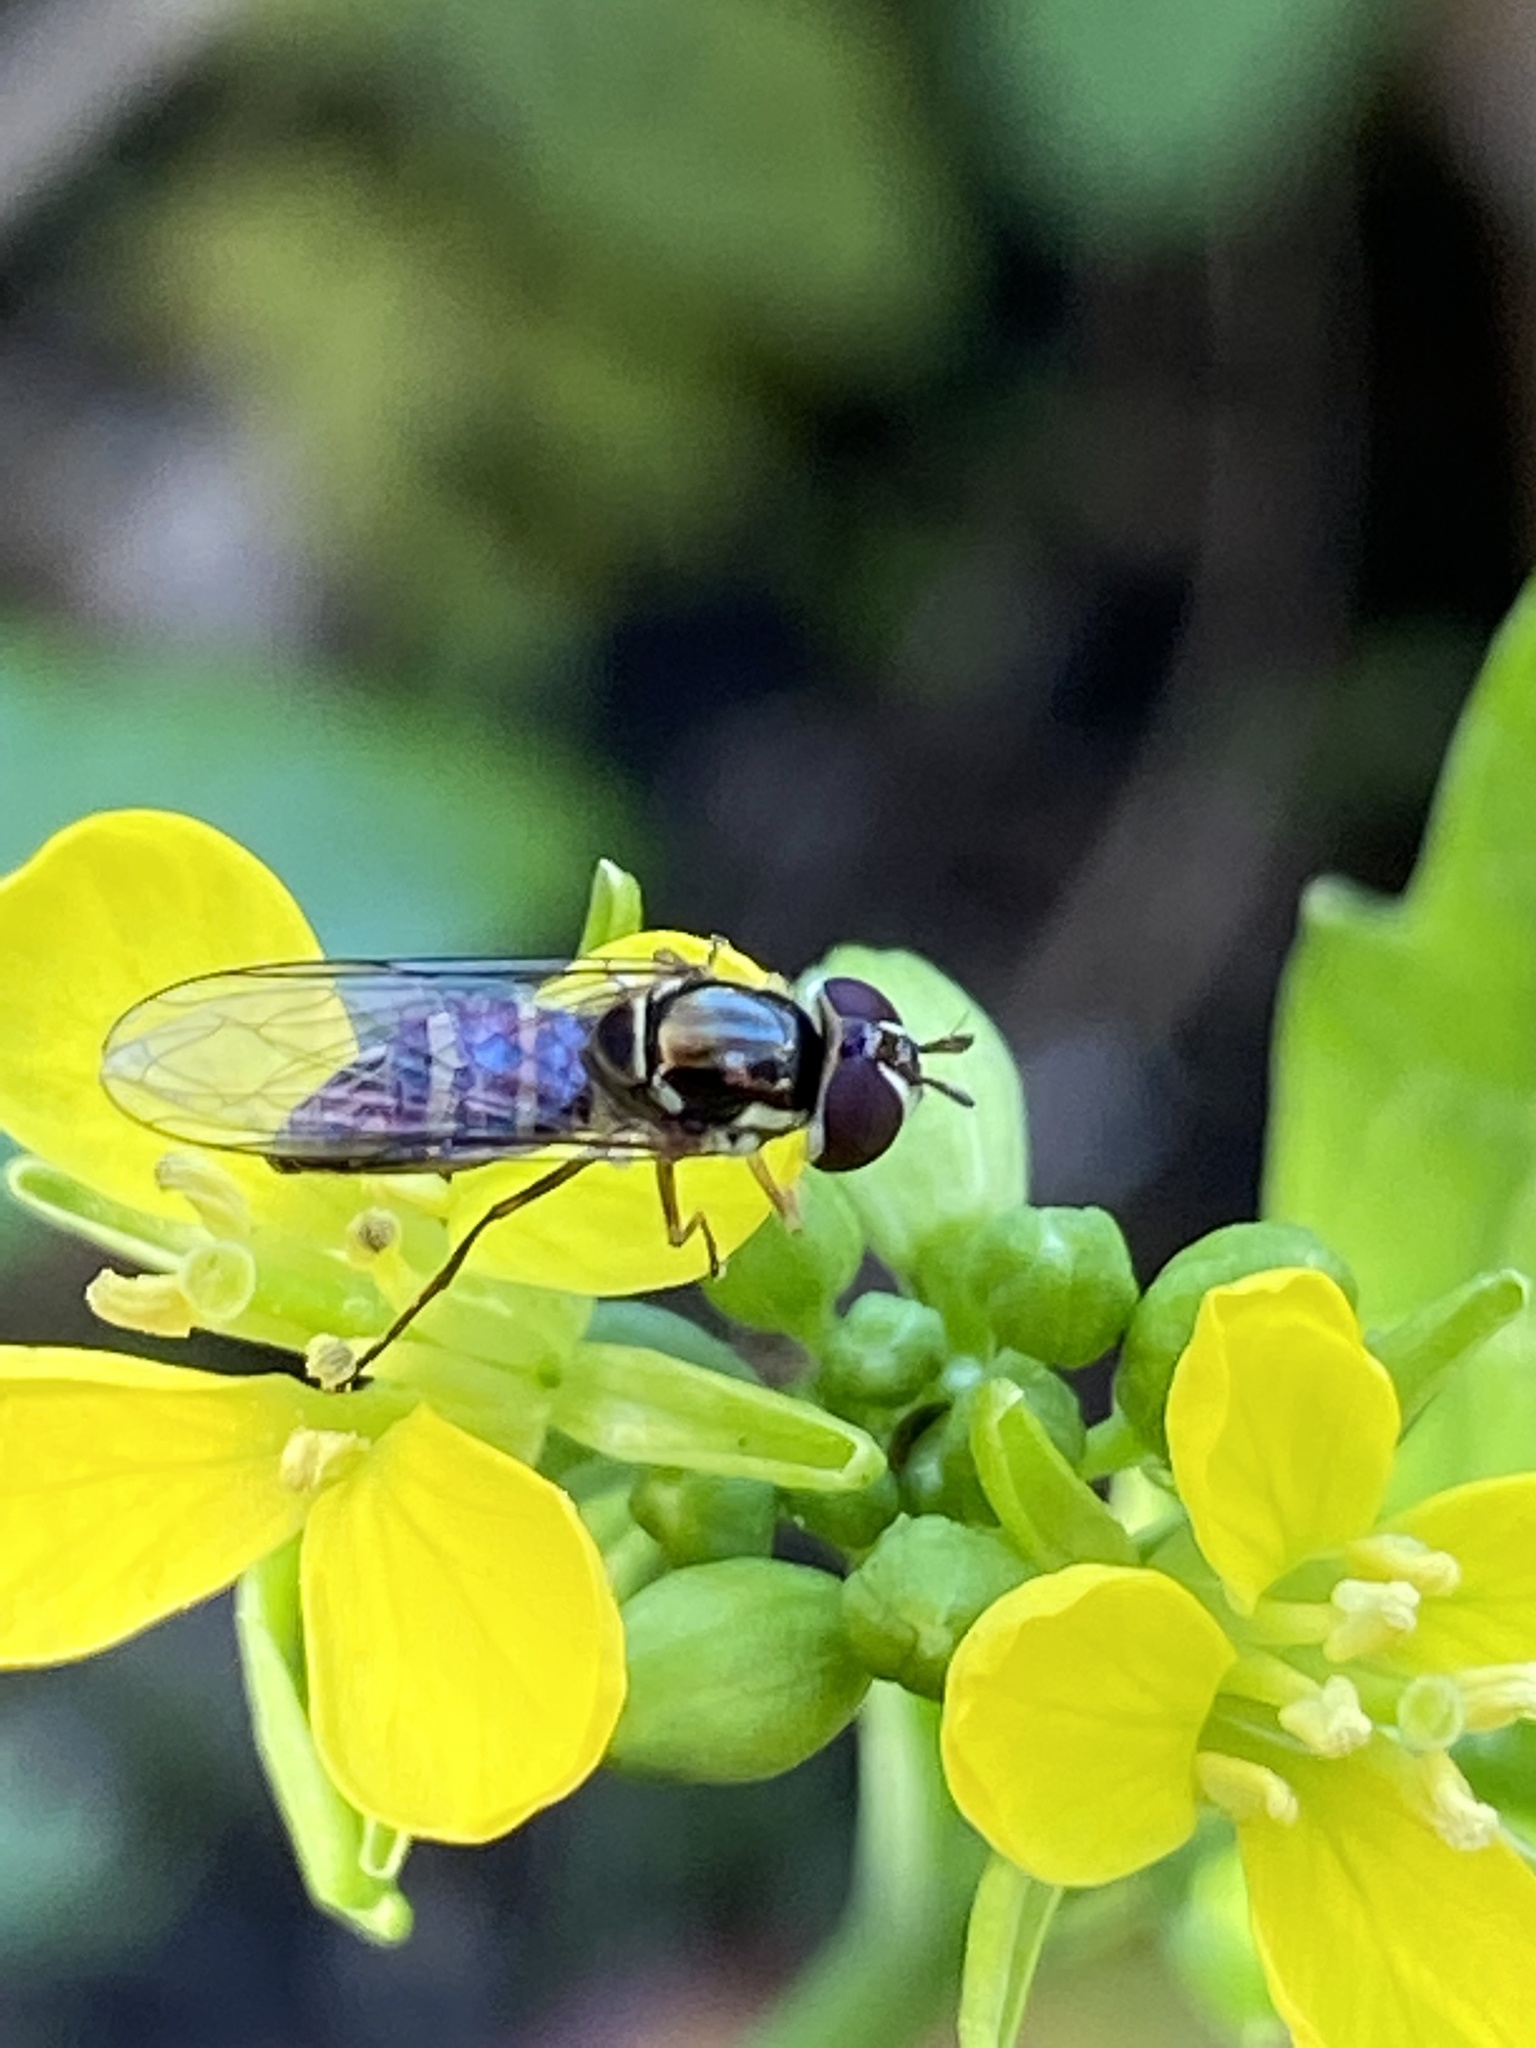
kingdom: Animalia
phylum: Arthropoda
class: Insecta
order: Diptera
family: Syrphidae
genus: Allograpta
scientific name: Allograpta obliqua
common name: Common oblique syrphid
